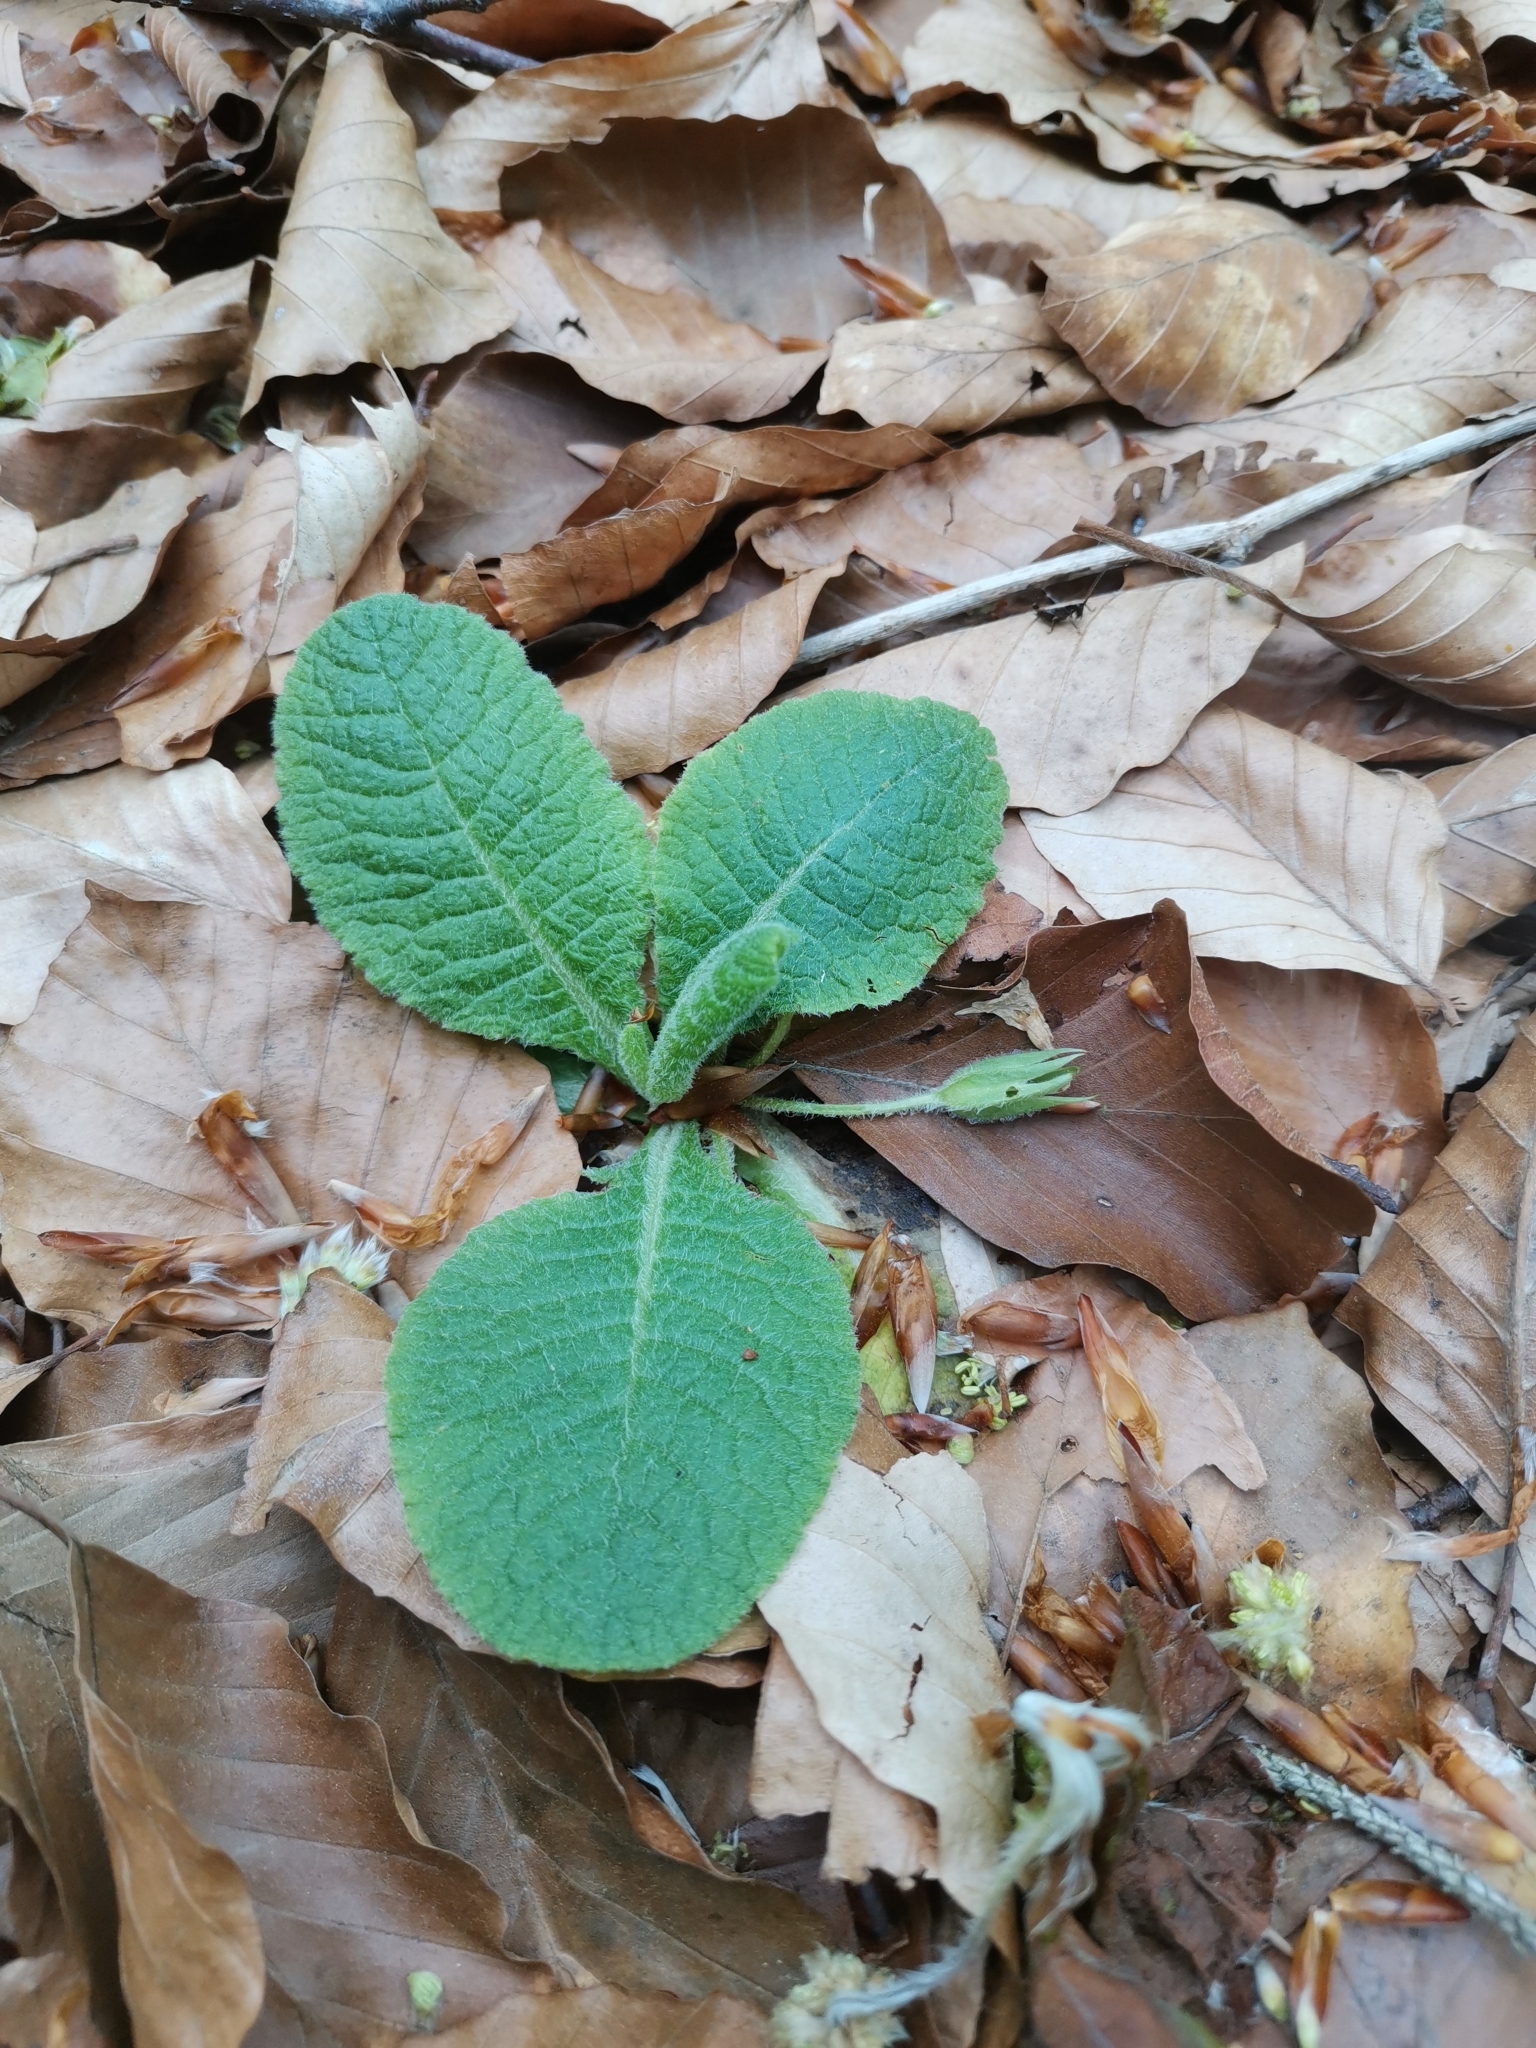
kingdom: Plantae
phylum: Tracheophyta
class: Magnoliopsida
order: Ericales
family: Primulaceae
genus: Primula
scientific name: Primula vulgaris
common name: Primrose
